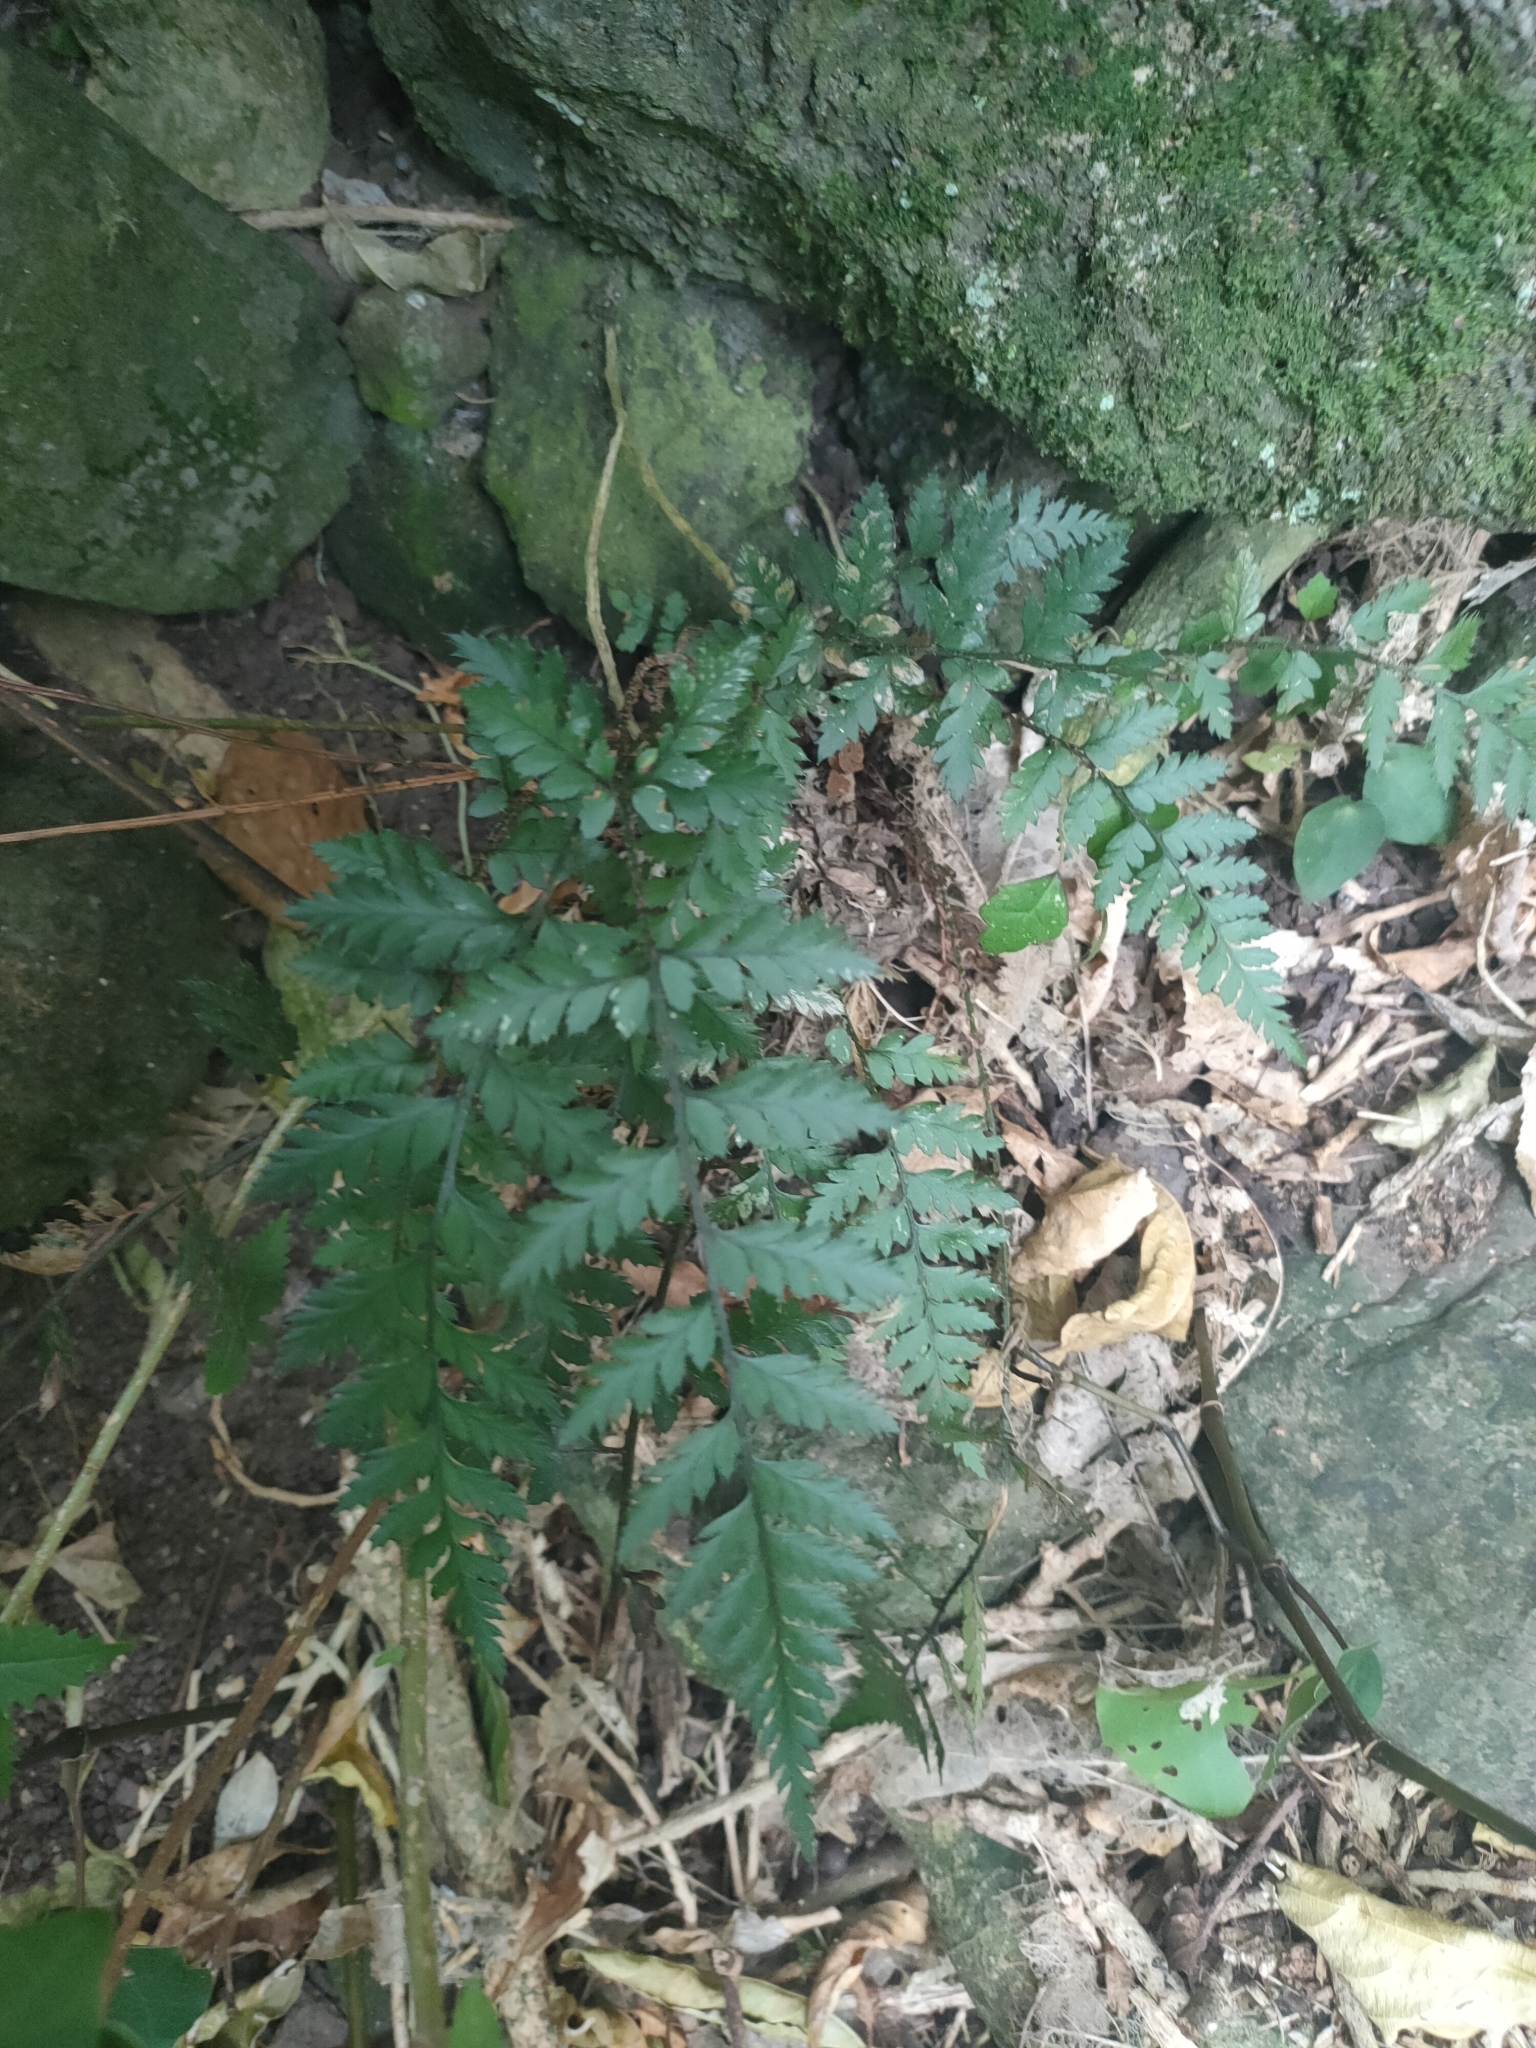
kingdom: Plantae
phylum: Tracheophyta
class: Polypodiopsida
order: Polypodiales
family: Dryopteridaceae
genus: Polystichum
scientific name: Polystichum oculatum
